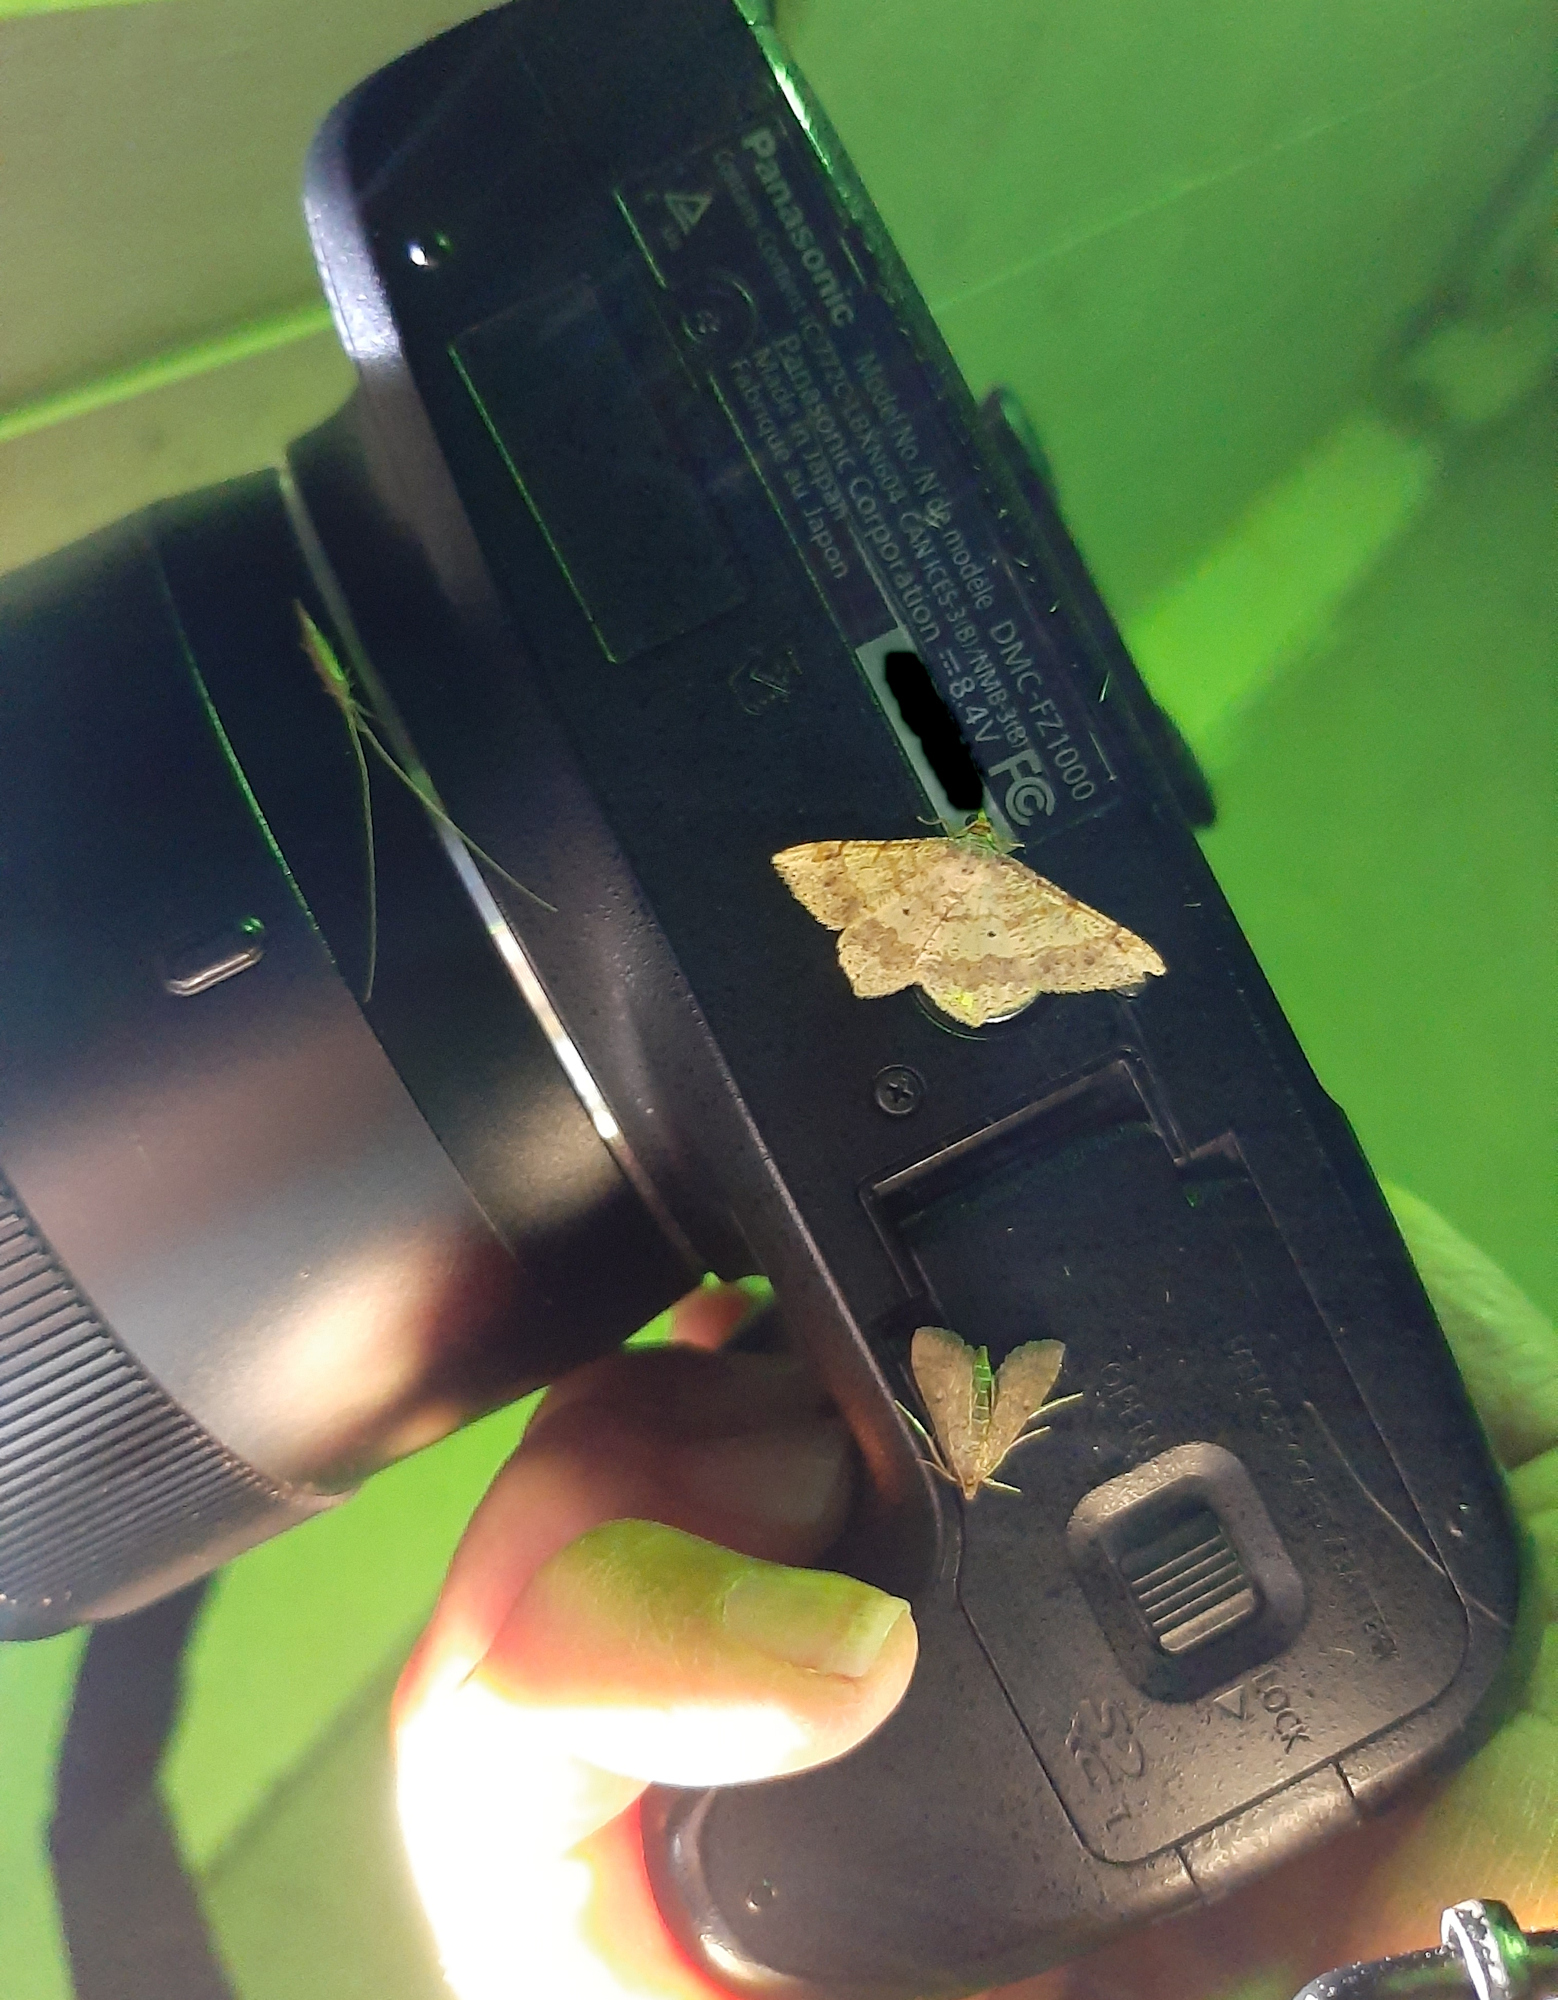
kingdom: Animalia
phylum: Arthropoda
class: Insecta
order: Lepidoptera
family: Geometridae
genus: Macaria
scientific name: Macaria abydata
